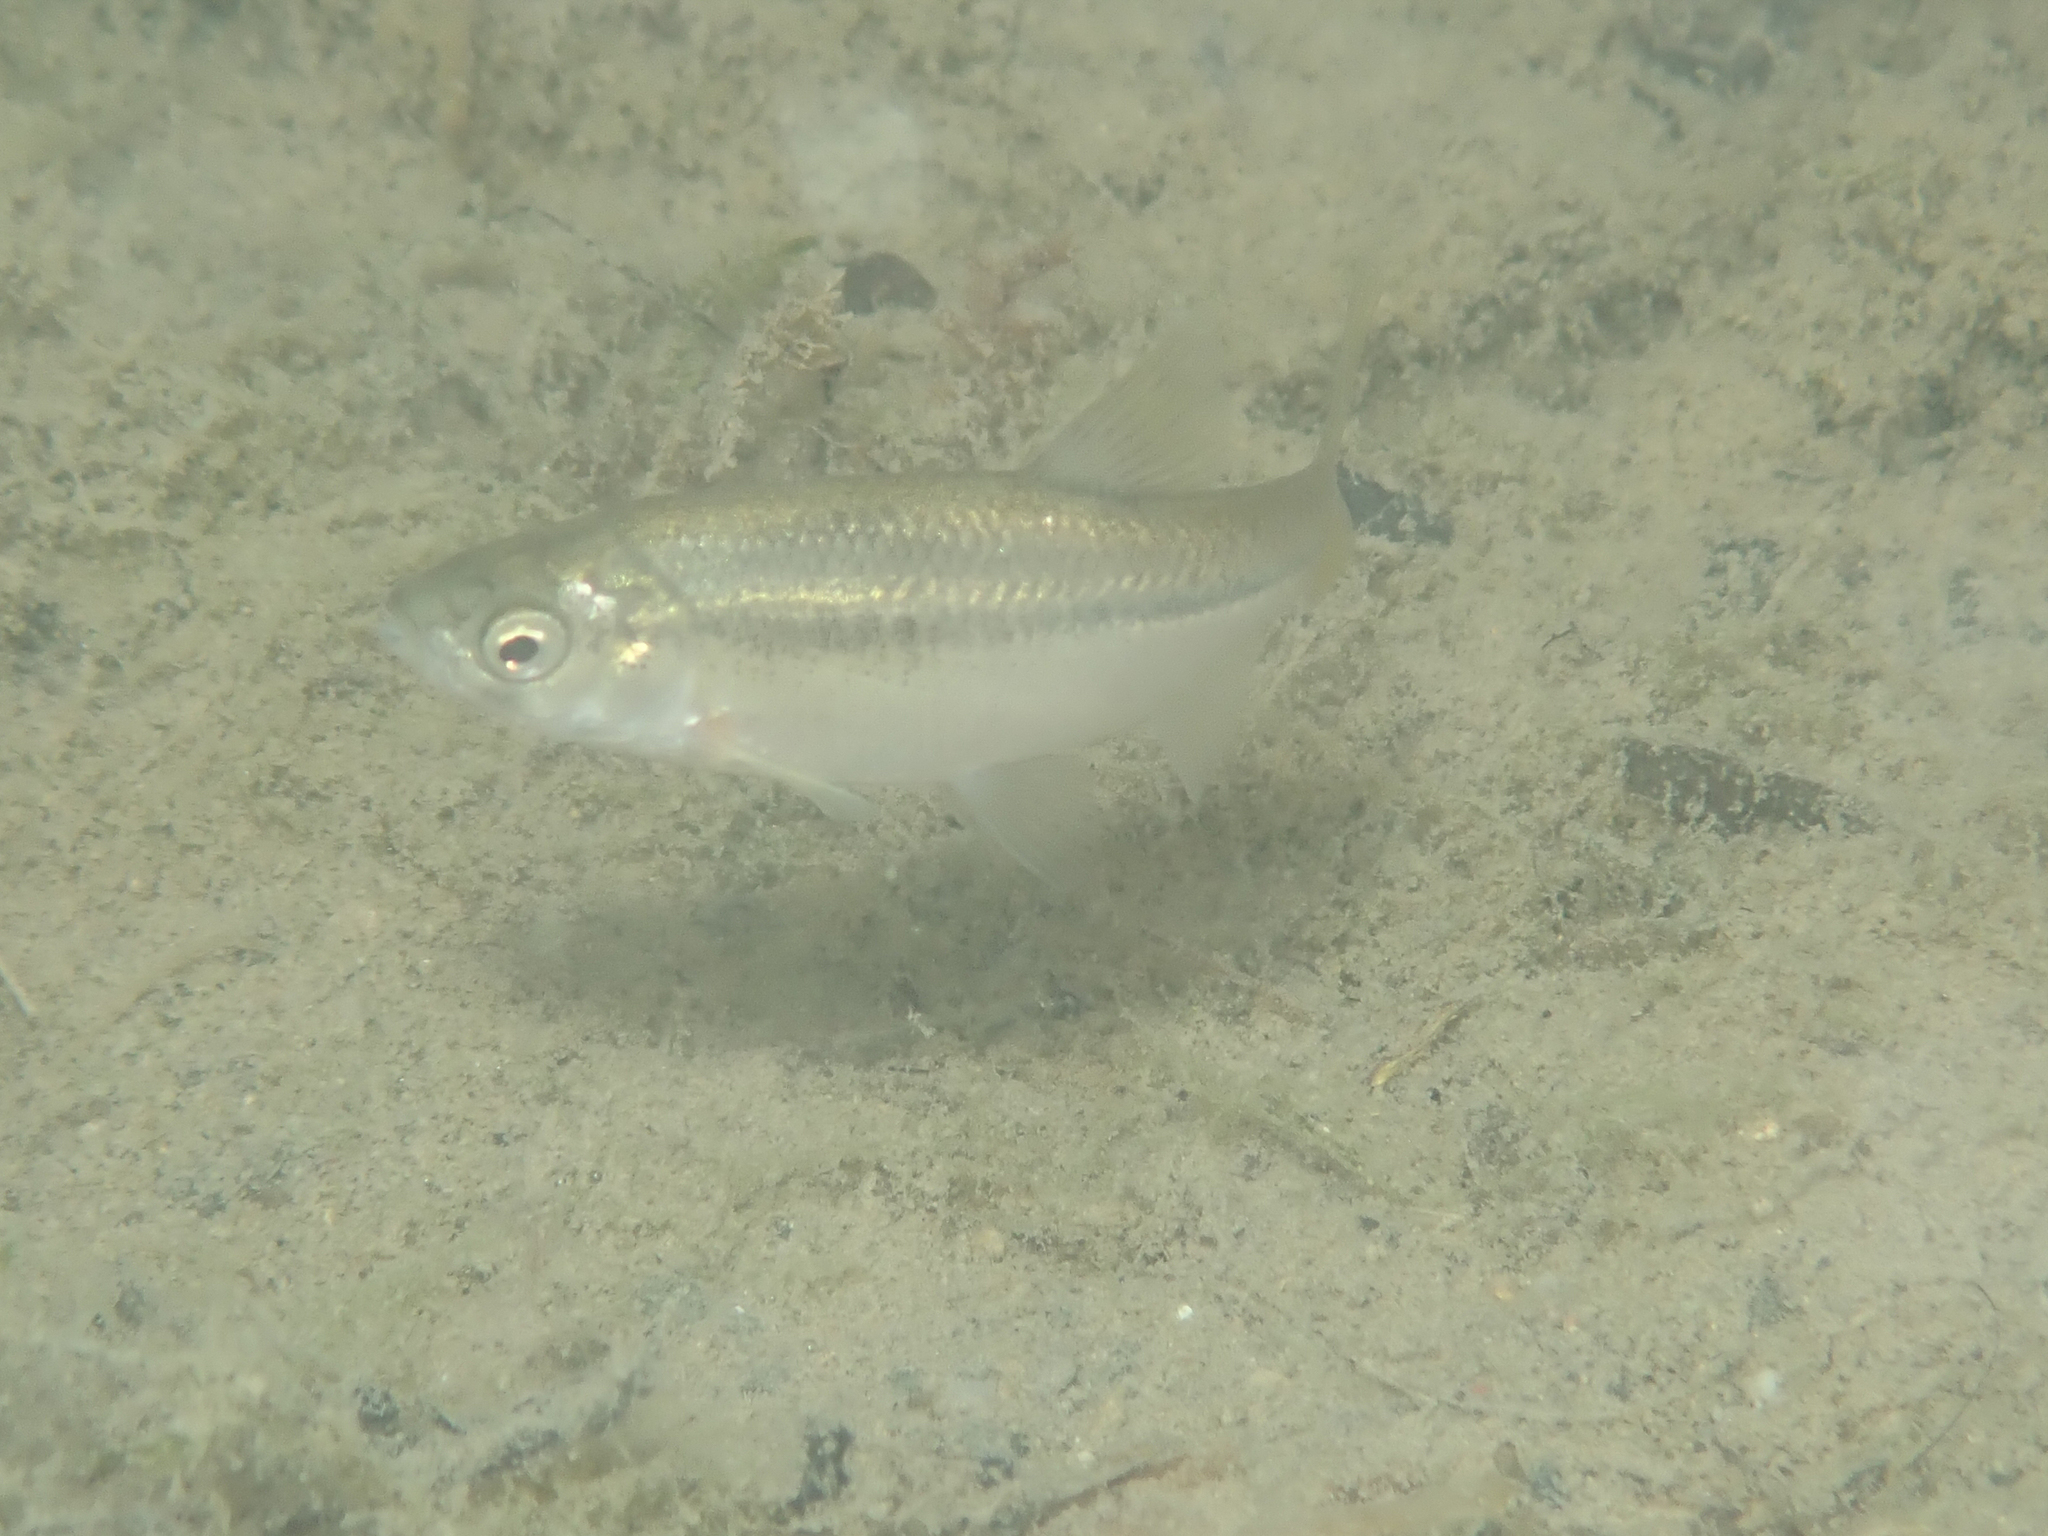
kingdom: Animalia
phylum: Chordata
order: Cypriniformes
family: Cyprinidae
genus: Pachychilon
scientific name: Pachychilon pictum
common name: Albanian roach
